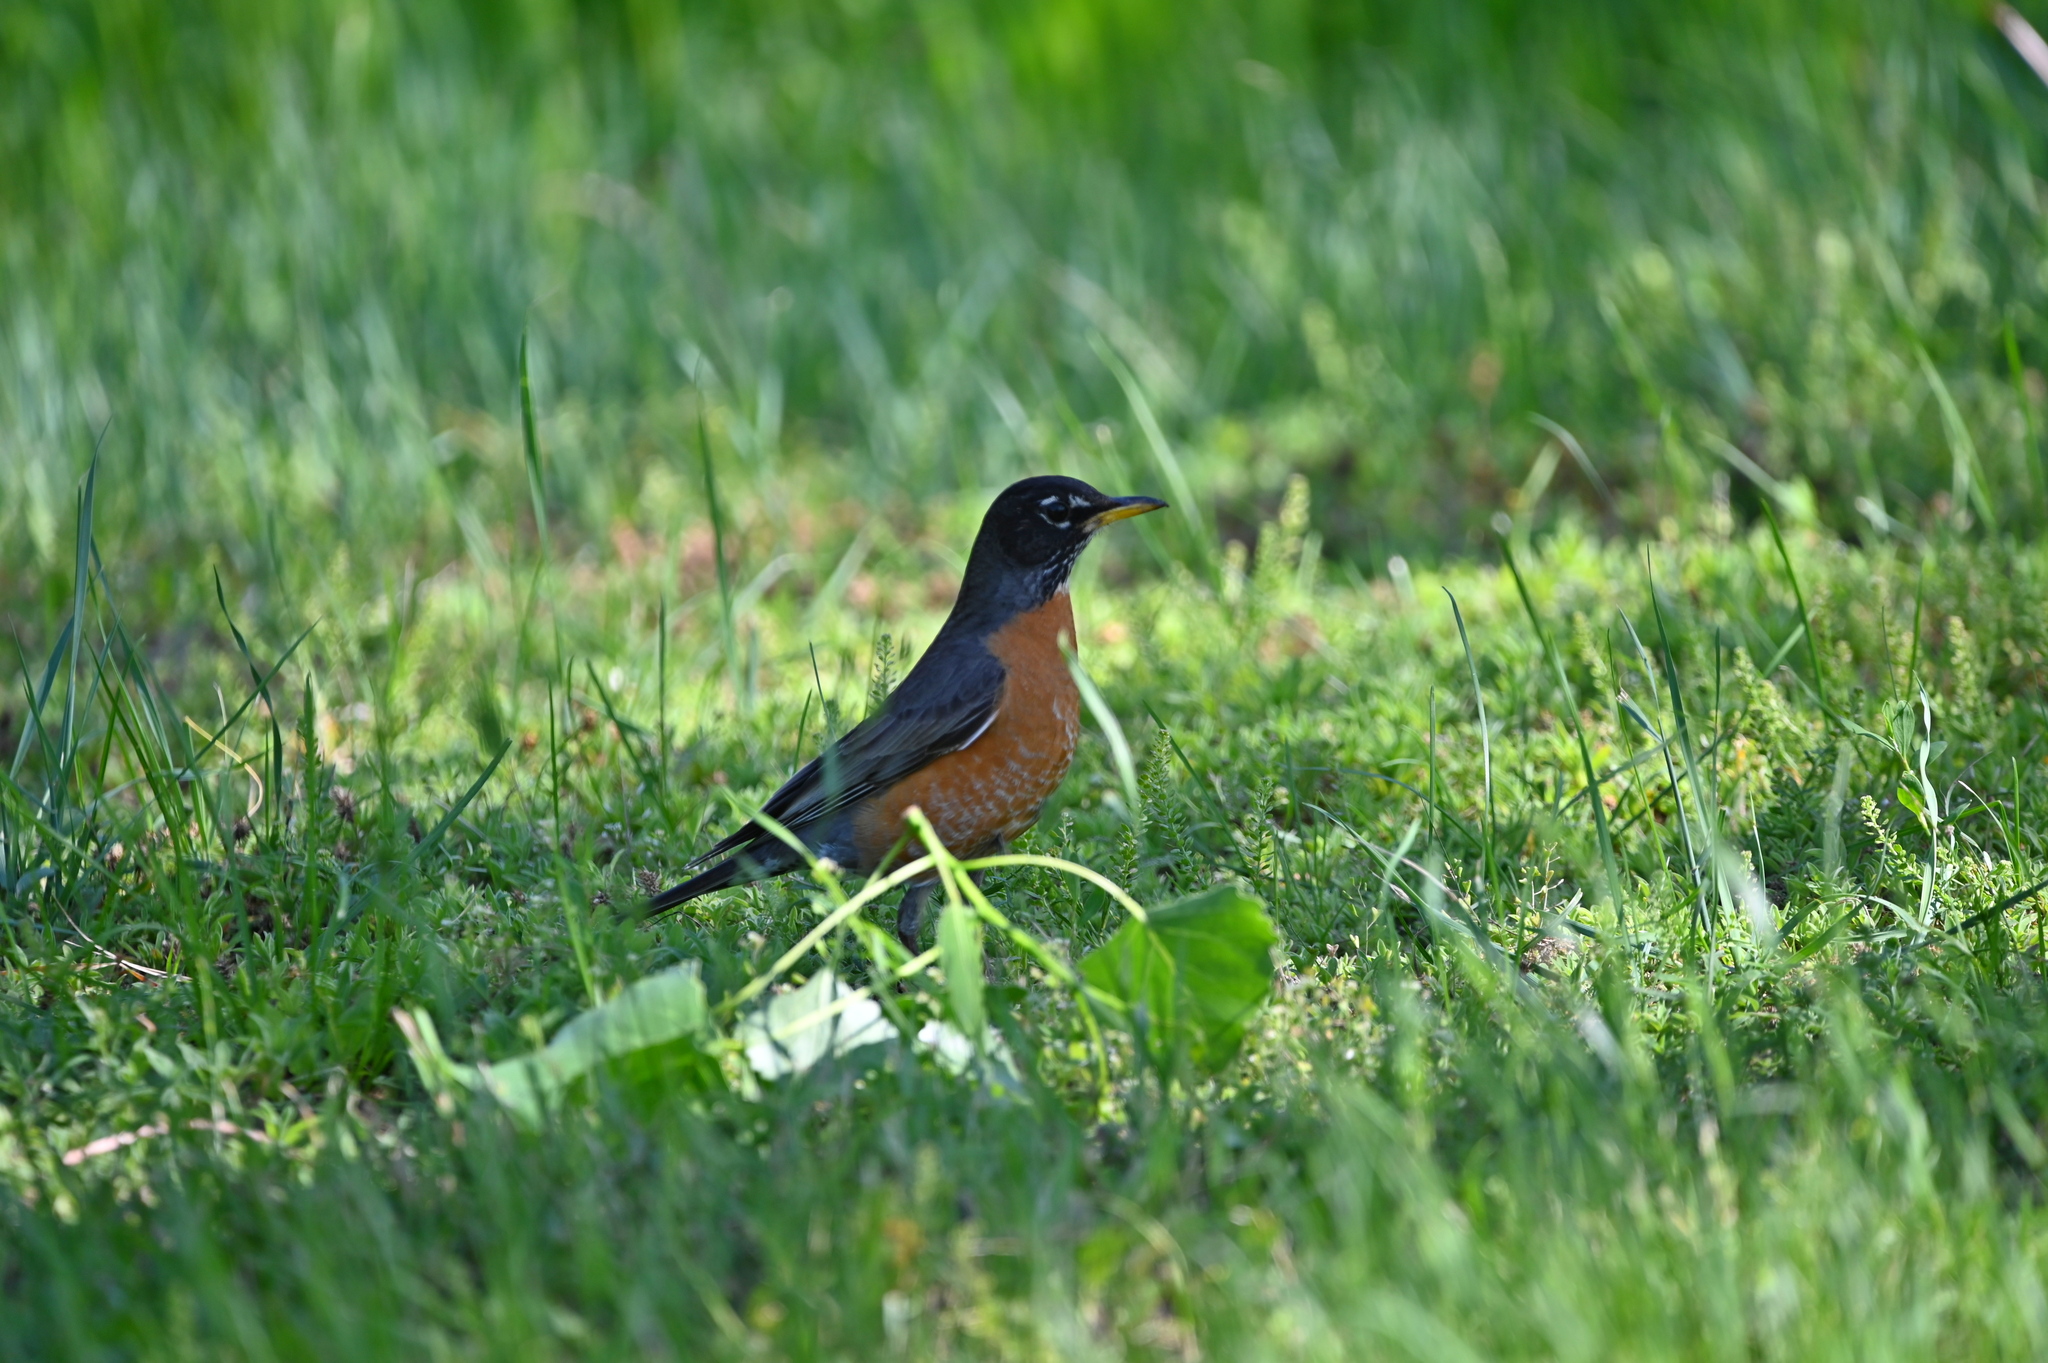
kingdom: Animalia
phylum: Chordata
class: Aves
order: Passeriformes
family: Turdidae
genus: Turdus
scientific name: Turdus migratorius
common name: American robin
